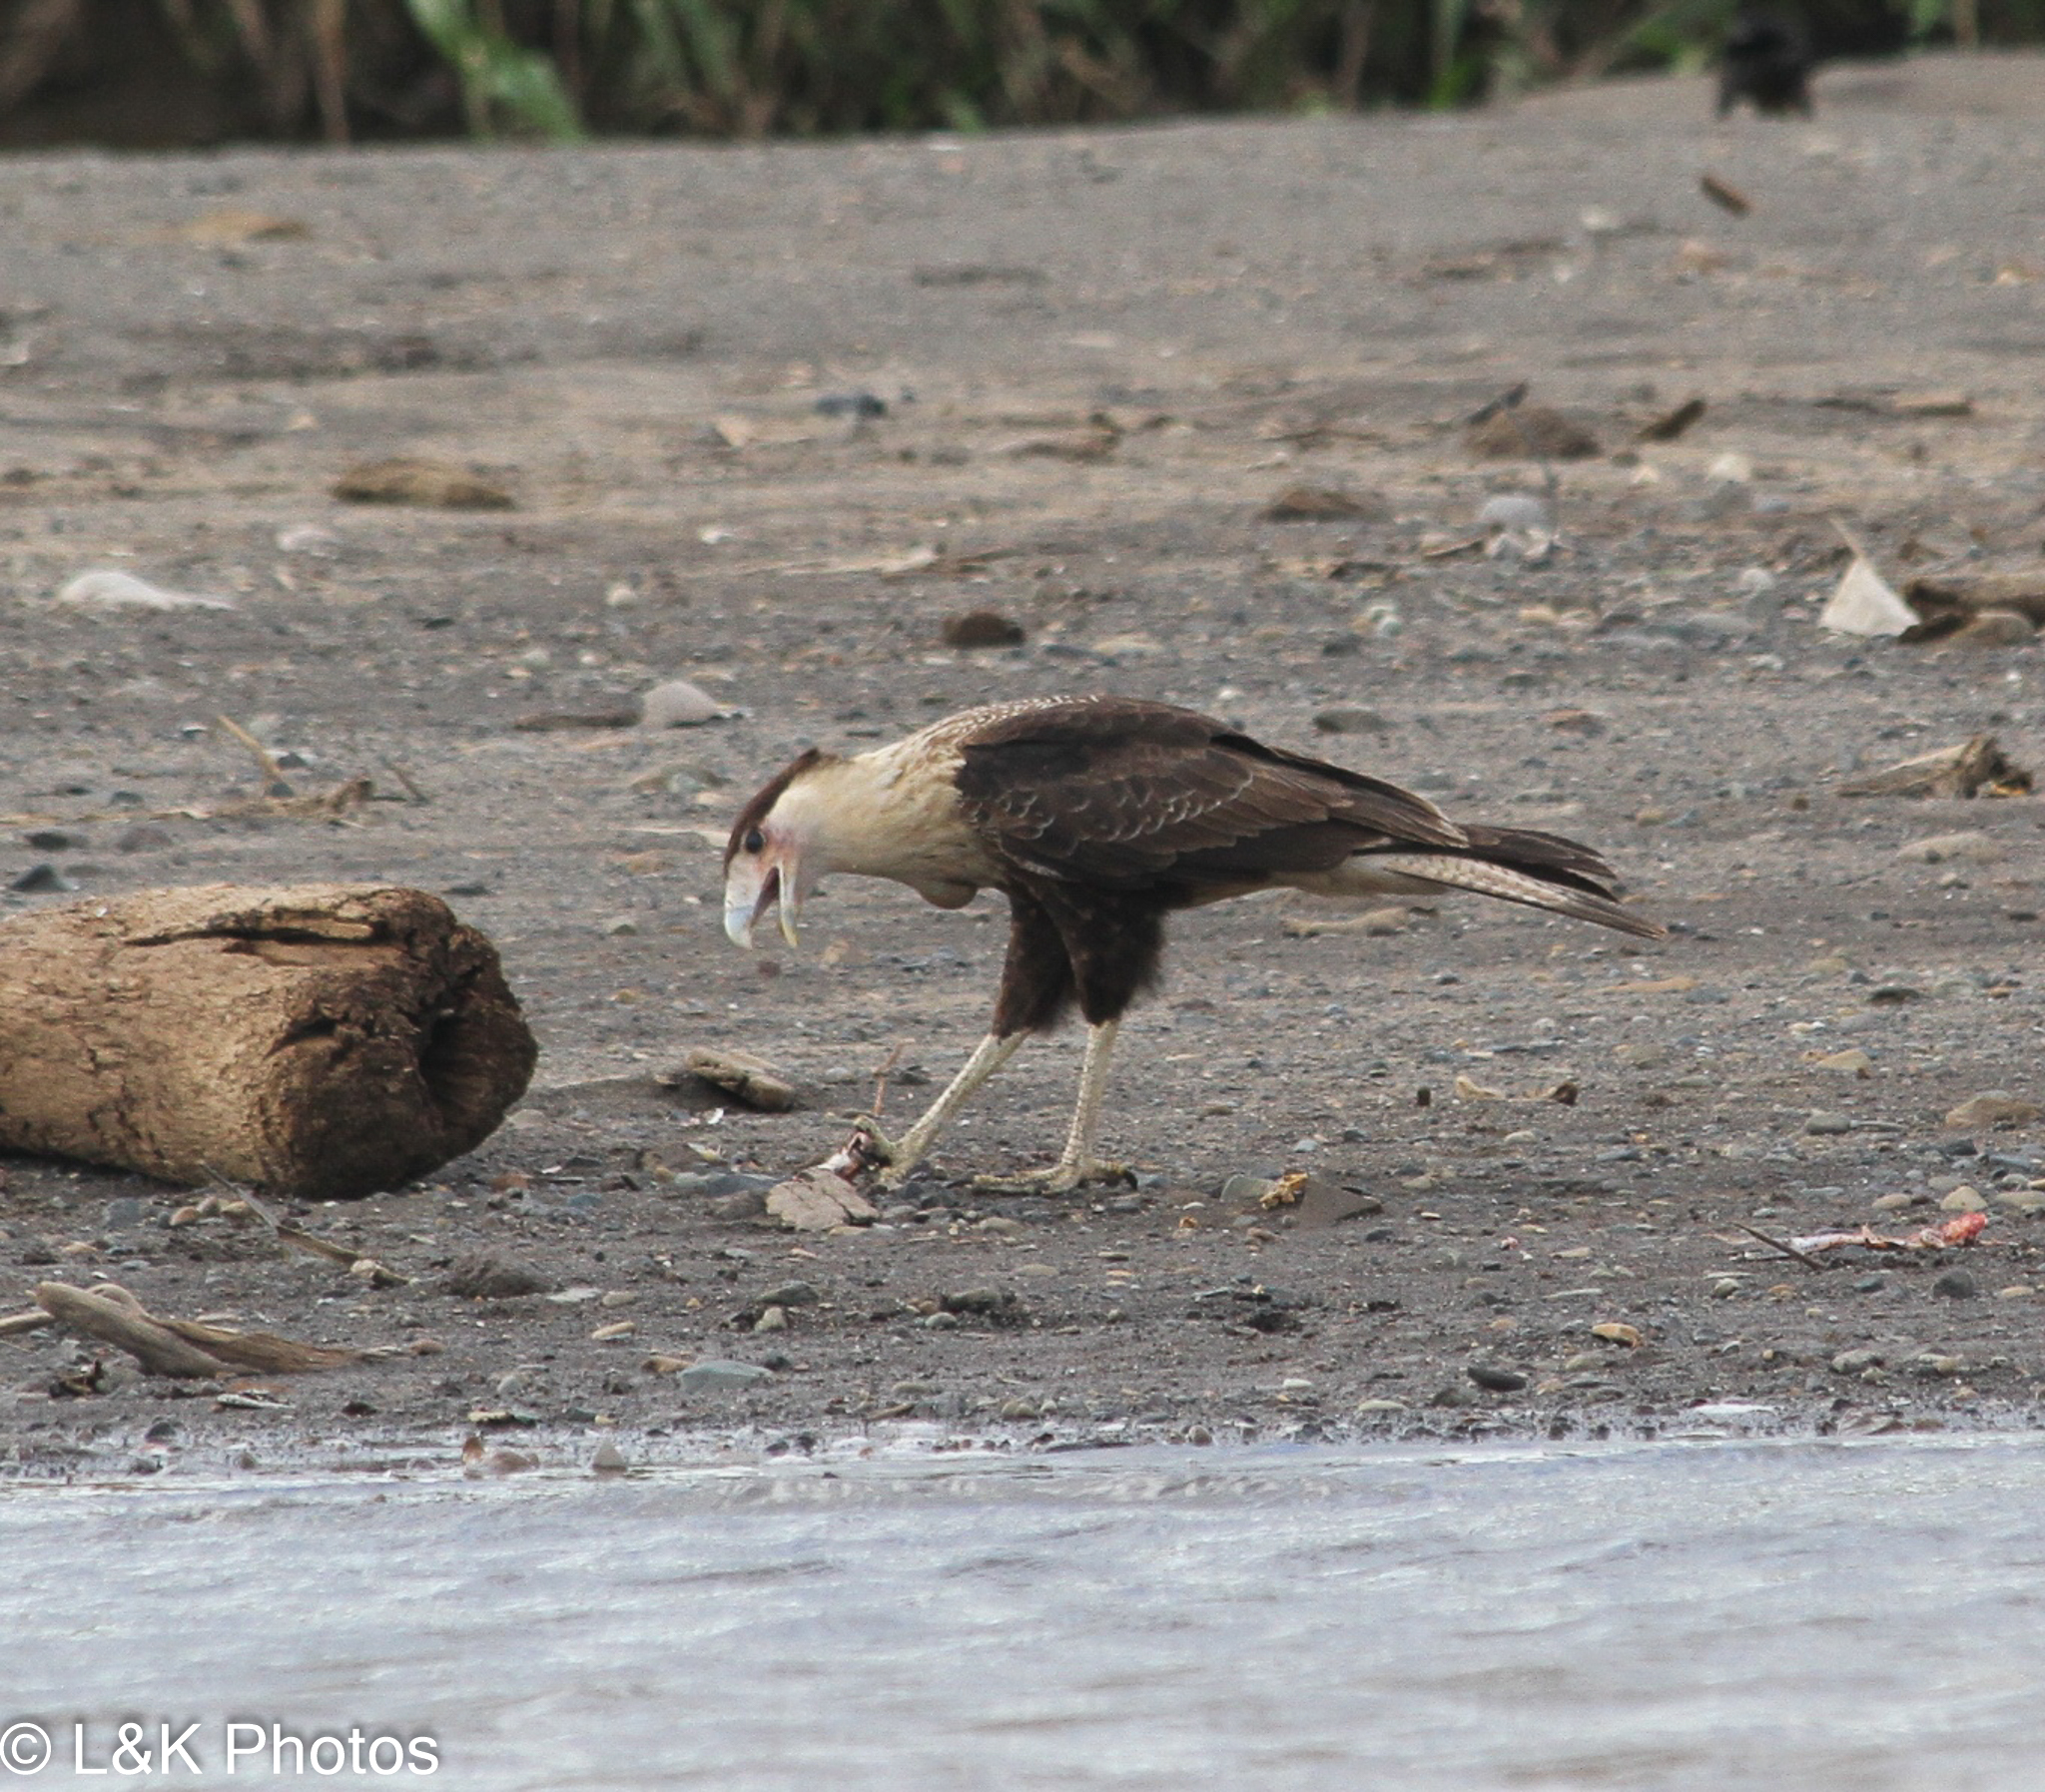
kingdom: Animalia
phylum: Chordata
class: Aves
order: Falconiformes
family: Falconidae
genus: Caracara
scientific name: Caracara plancus
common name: Southern caracara
